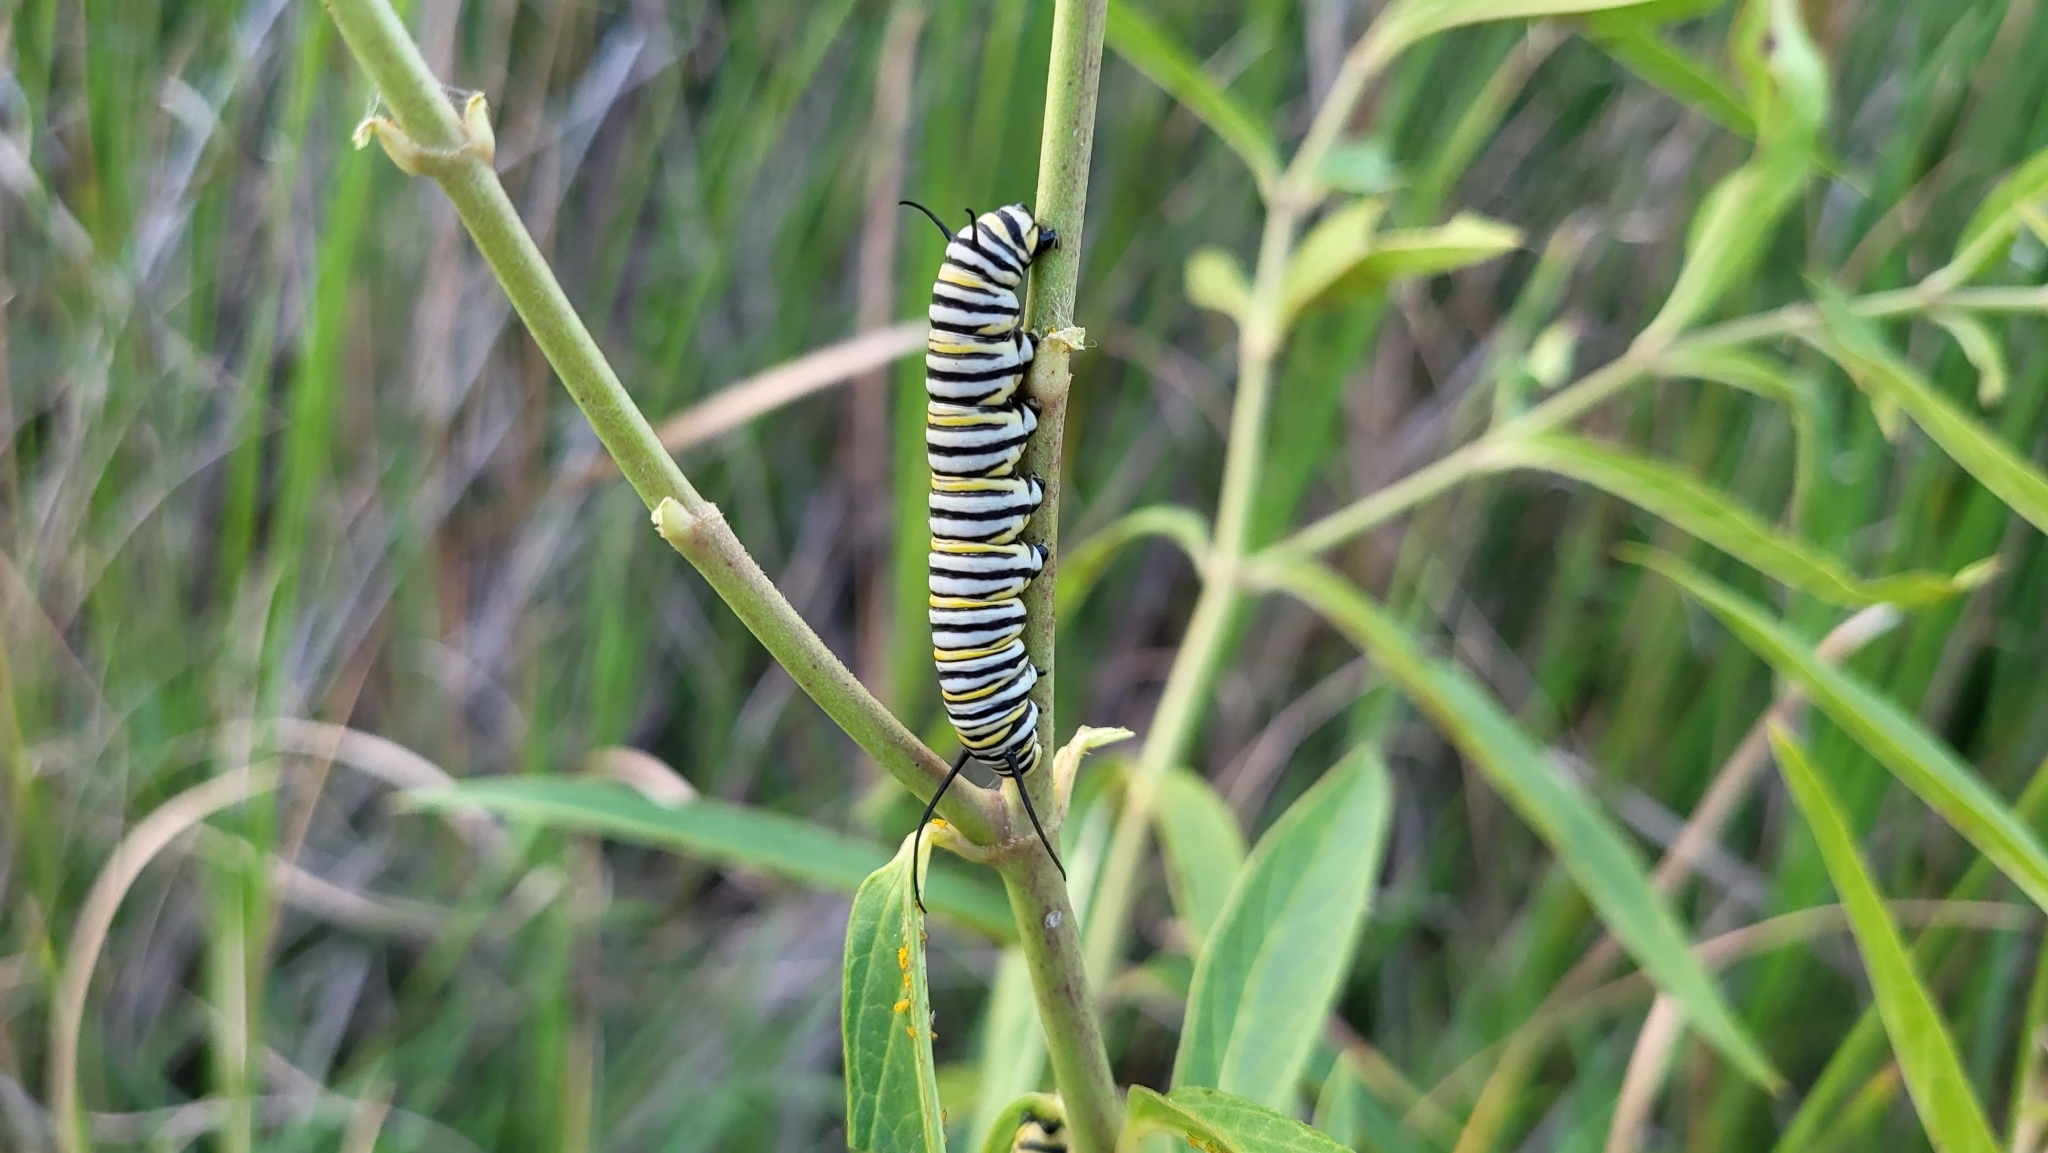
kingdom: Animalia
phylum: Arthropoda
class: Insecta
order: Lepidoptera
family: Nymphalidae
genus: Danaus
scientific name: Danaus plexippus
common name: Monarch
